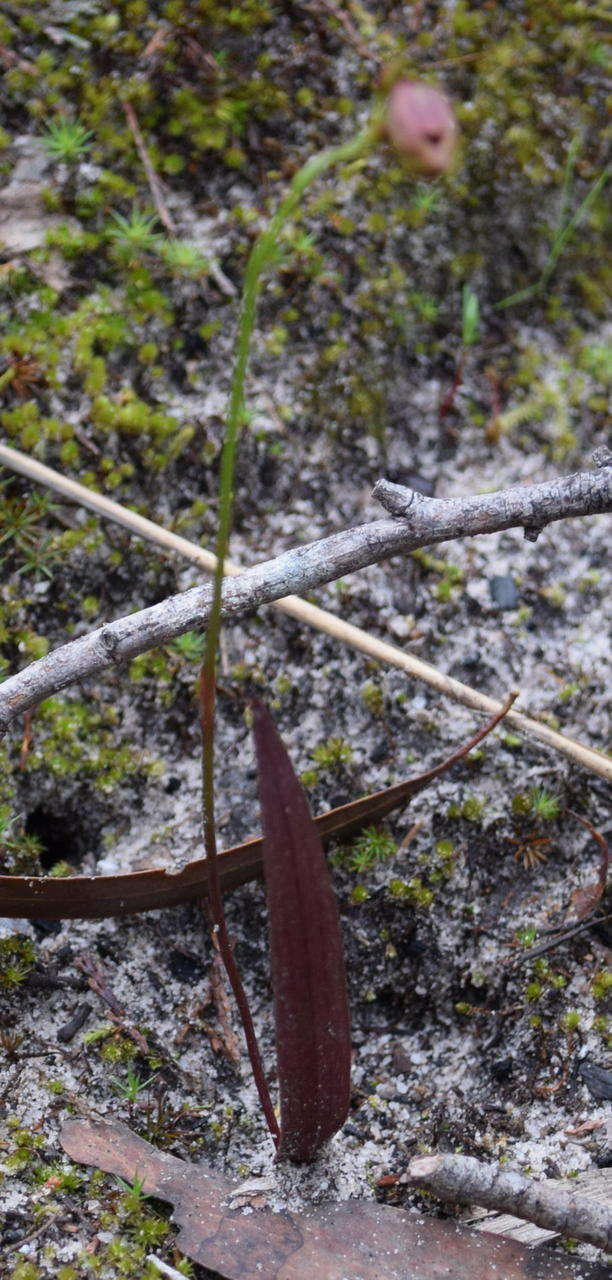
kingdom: Plantae
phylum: Tracheophyta
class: Liliopsida
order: Asparagales
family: Orchidaceae
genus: Caleana
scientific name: Caleana major
